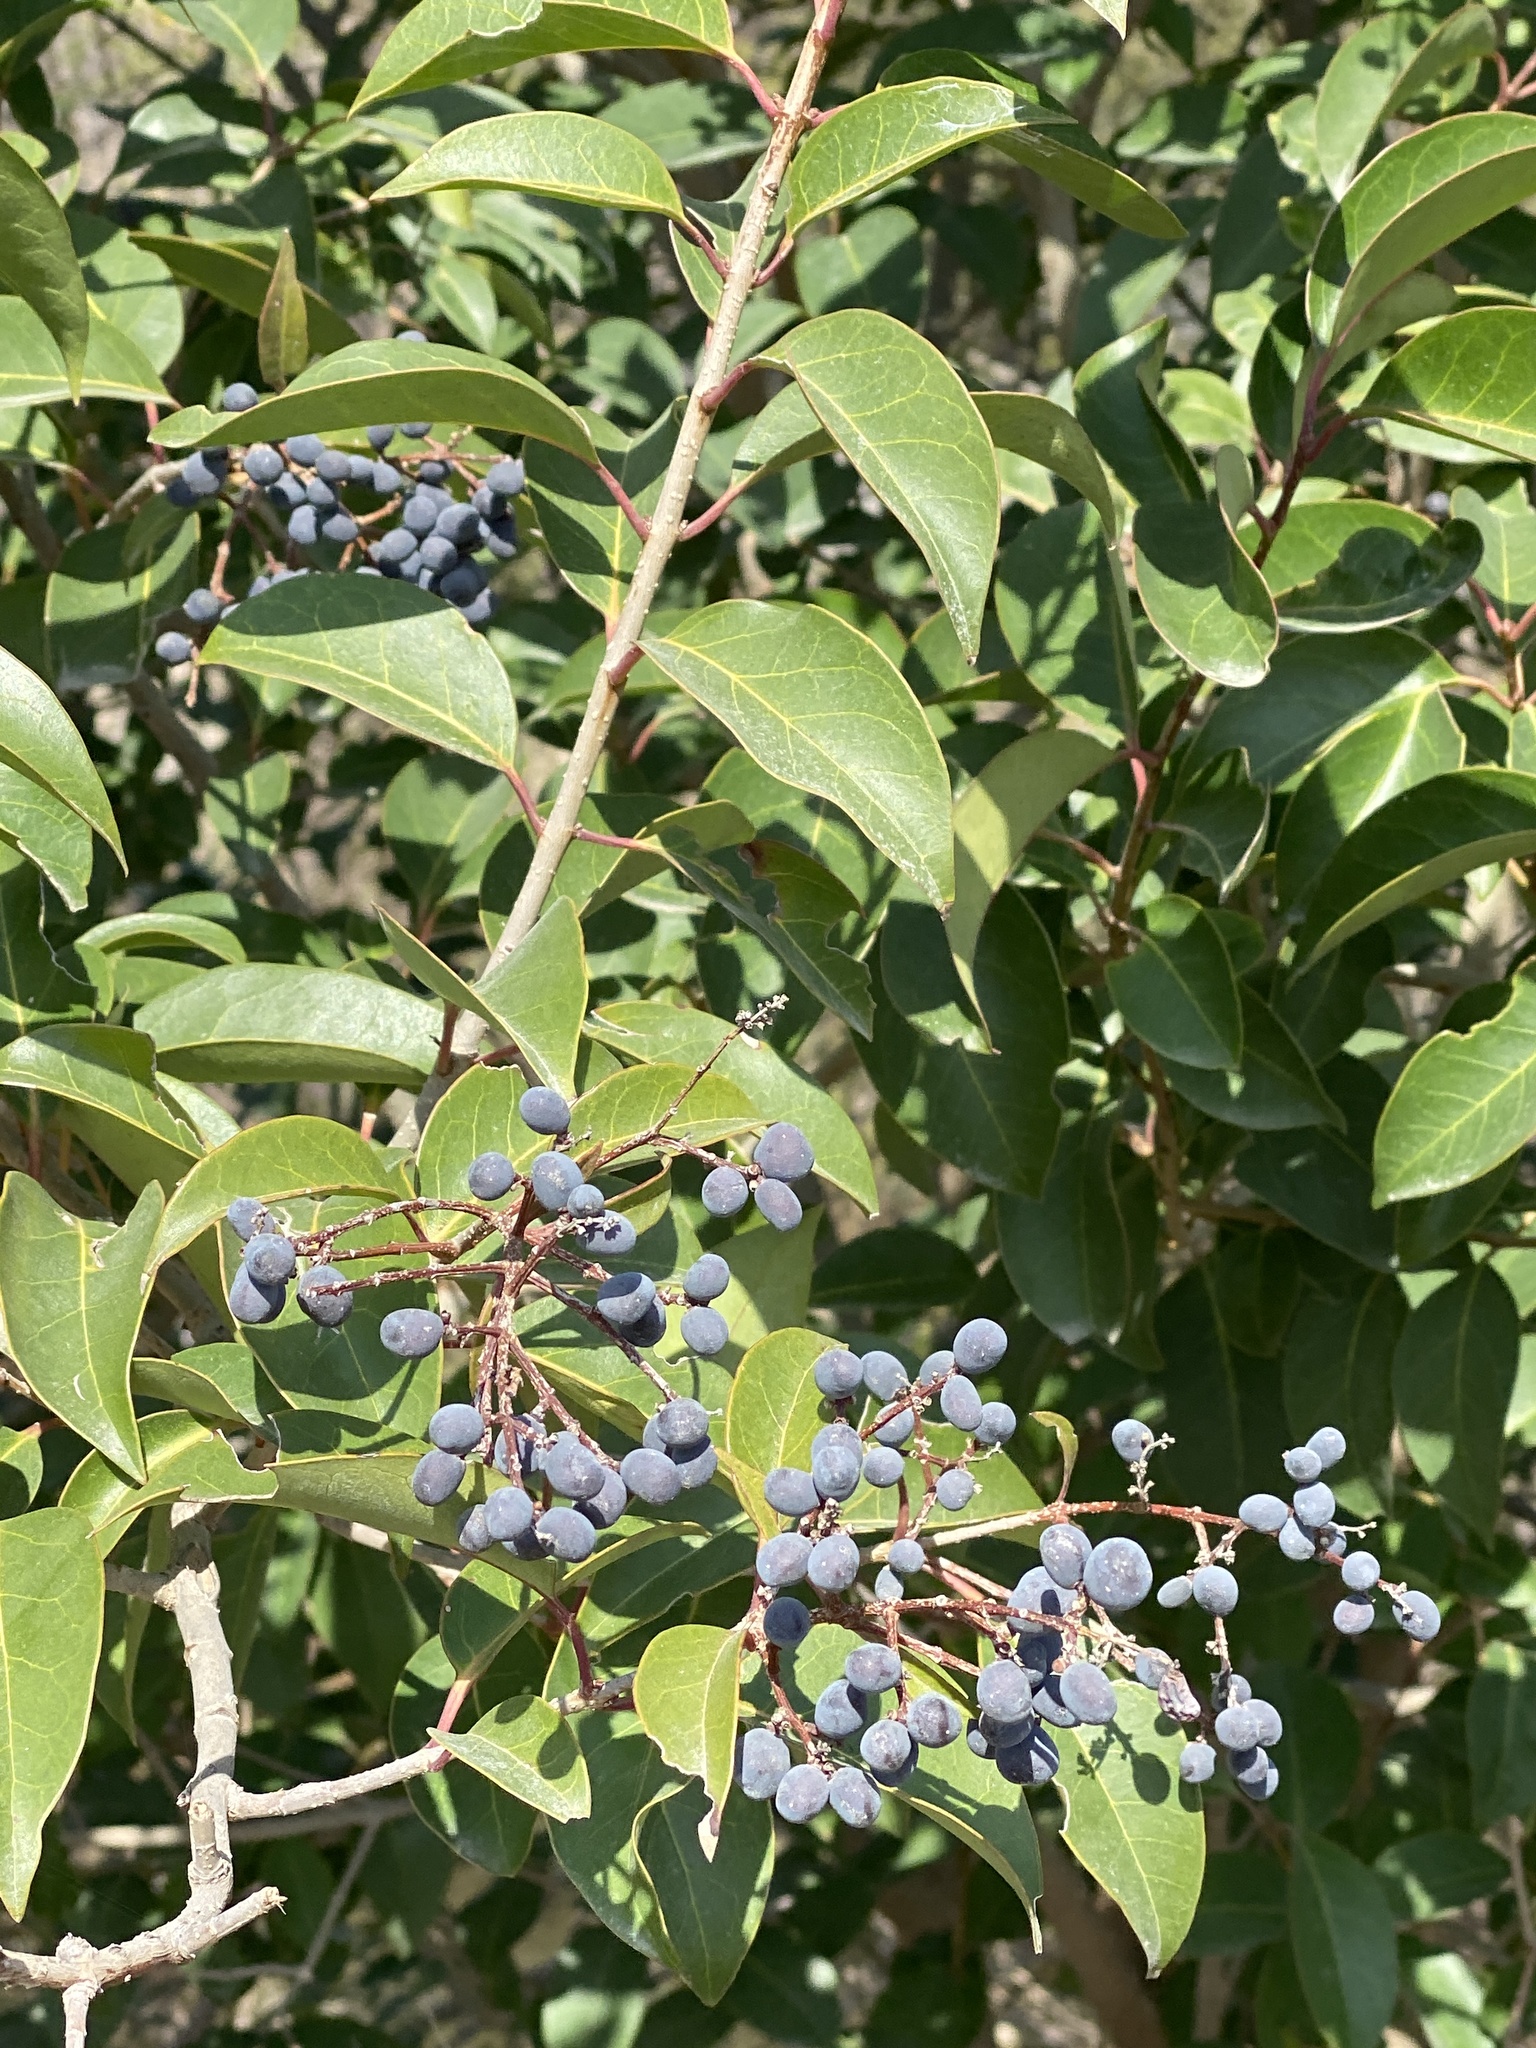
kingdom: Plantae
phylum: Tracheophyta
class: Magnoliopsida
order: Lamiales
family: Oleaceae
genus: Ligustrum
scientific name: Ligustrum lucidum
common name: Glossy privet
